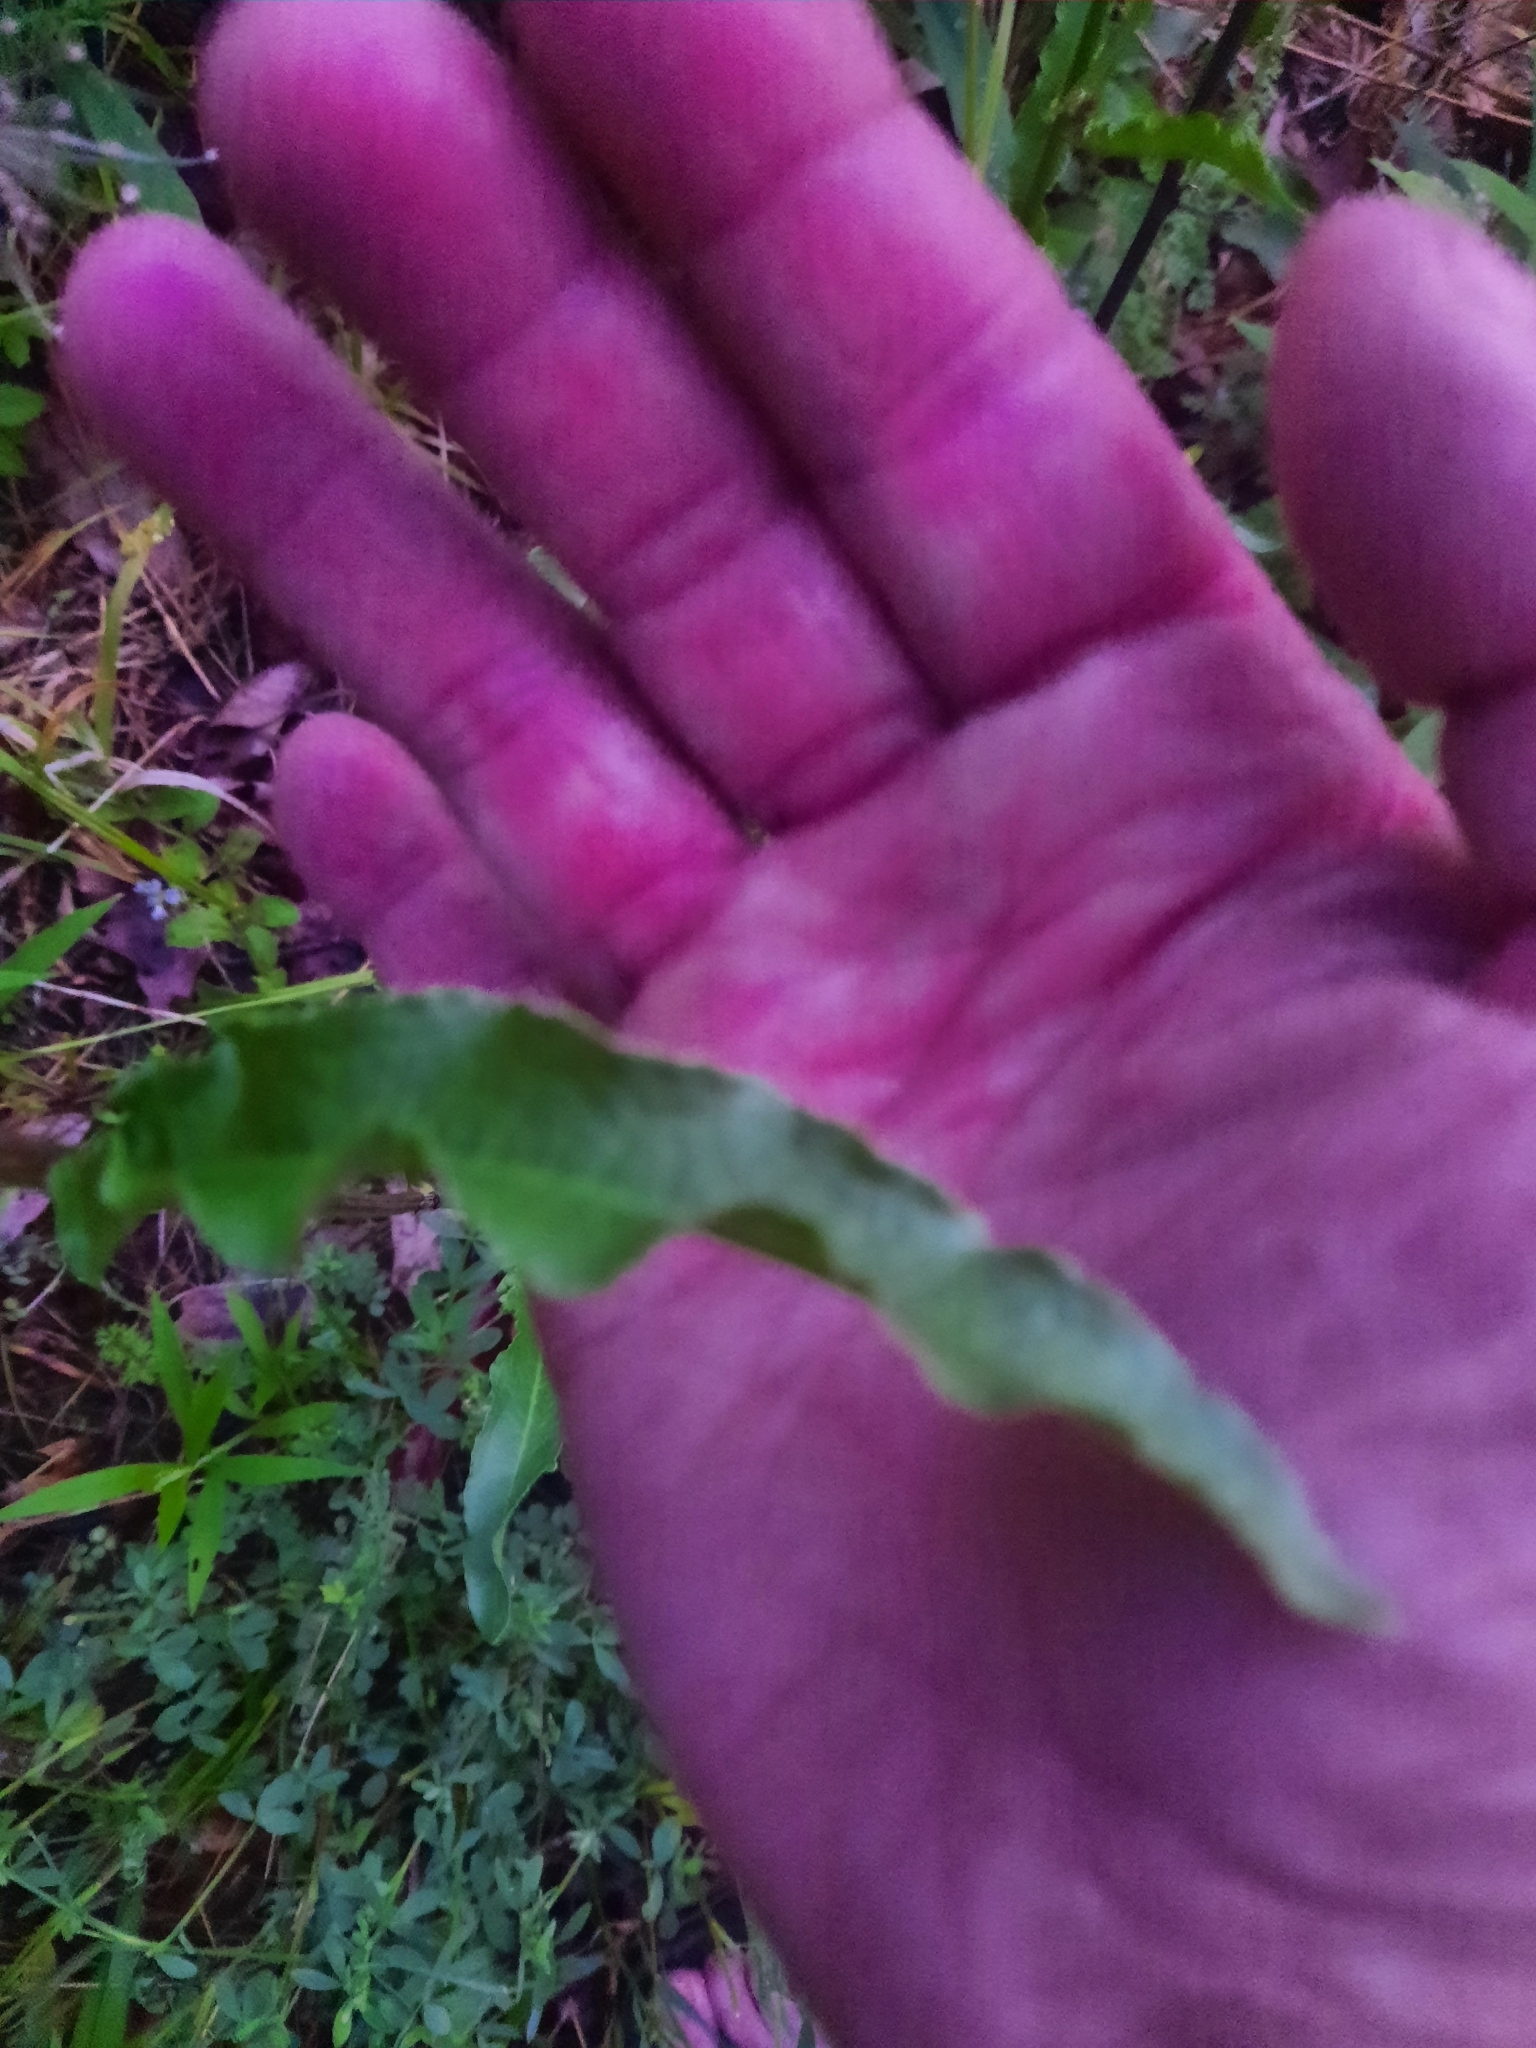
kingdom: Plantae
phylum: Tracheophyta
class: Magnoliopsida
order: Caryophyllales
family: Polygonaceae
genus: Rumex
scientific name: Rumex crispus
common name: Curled dock
